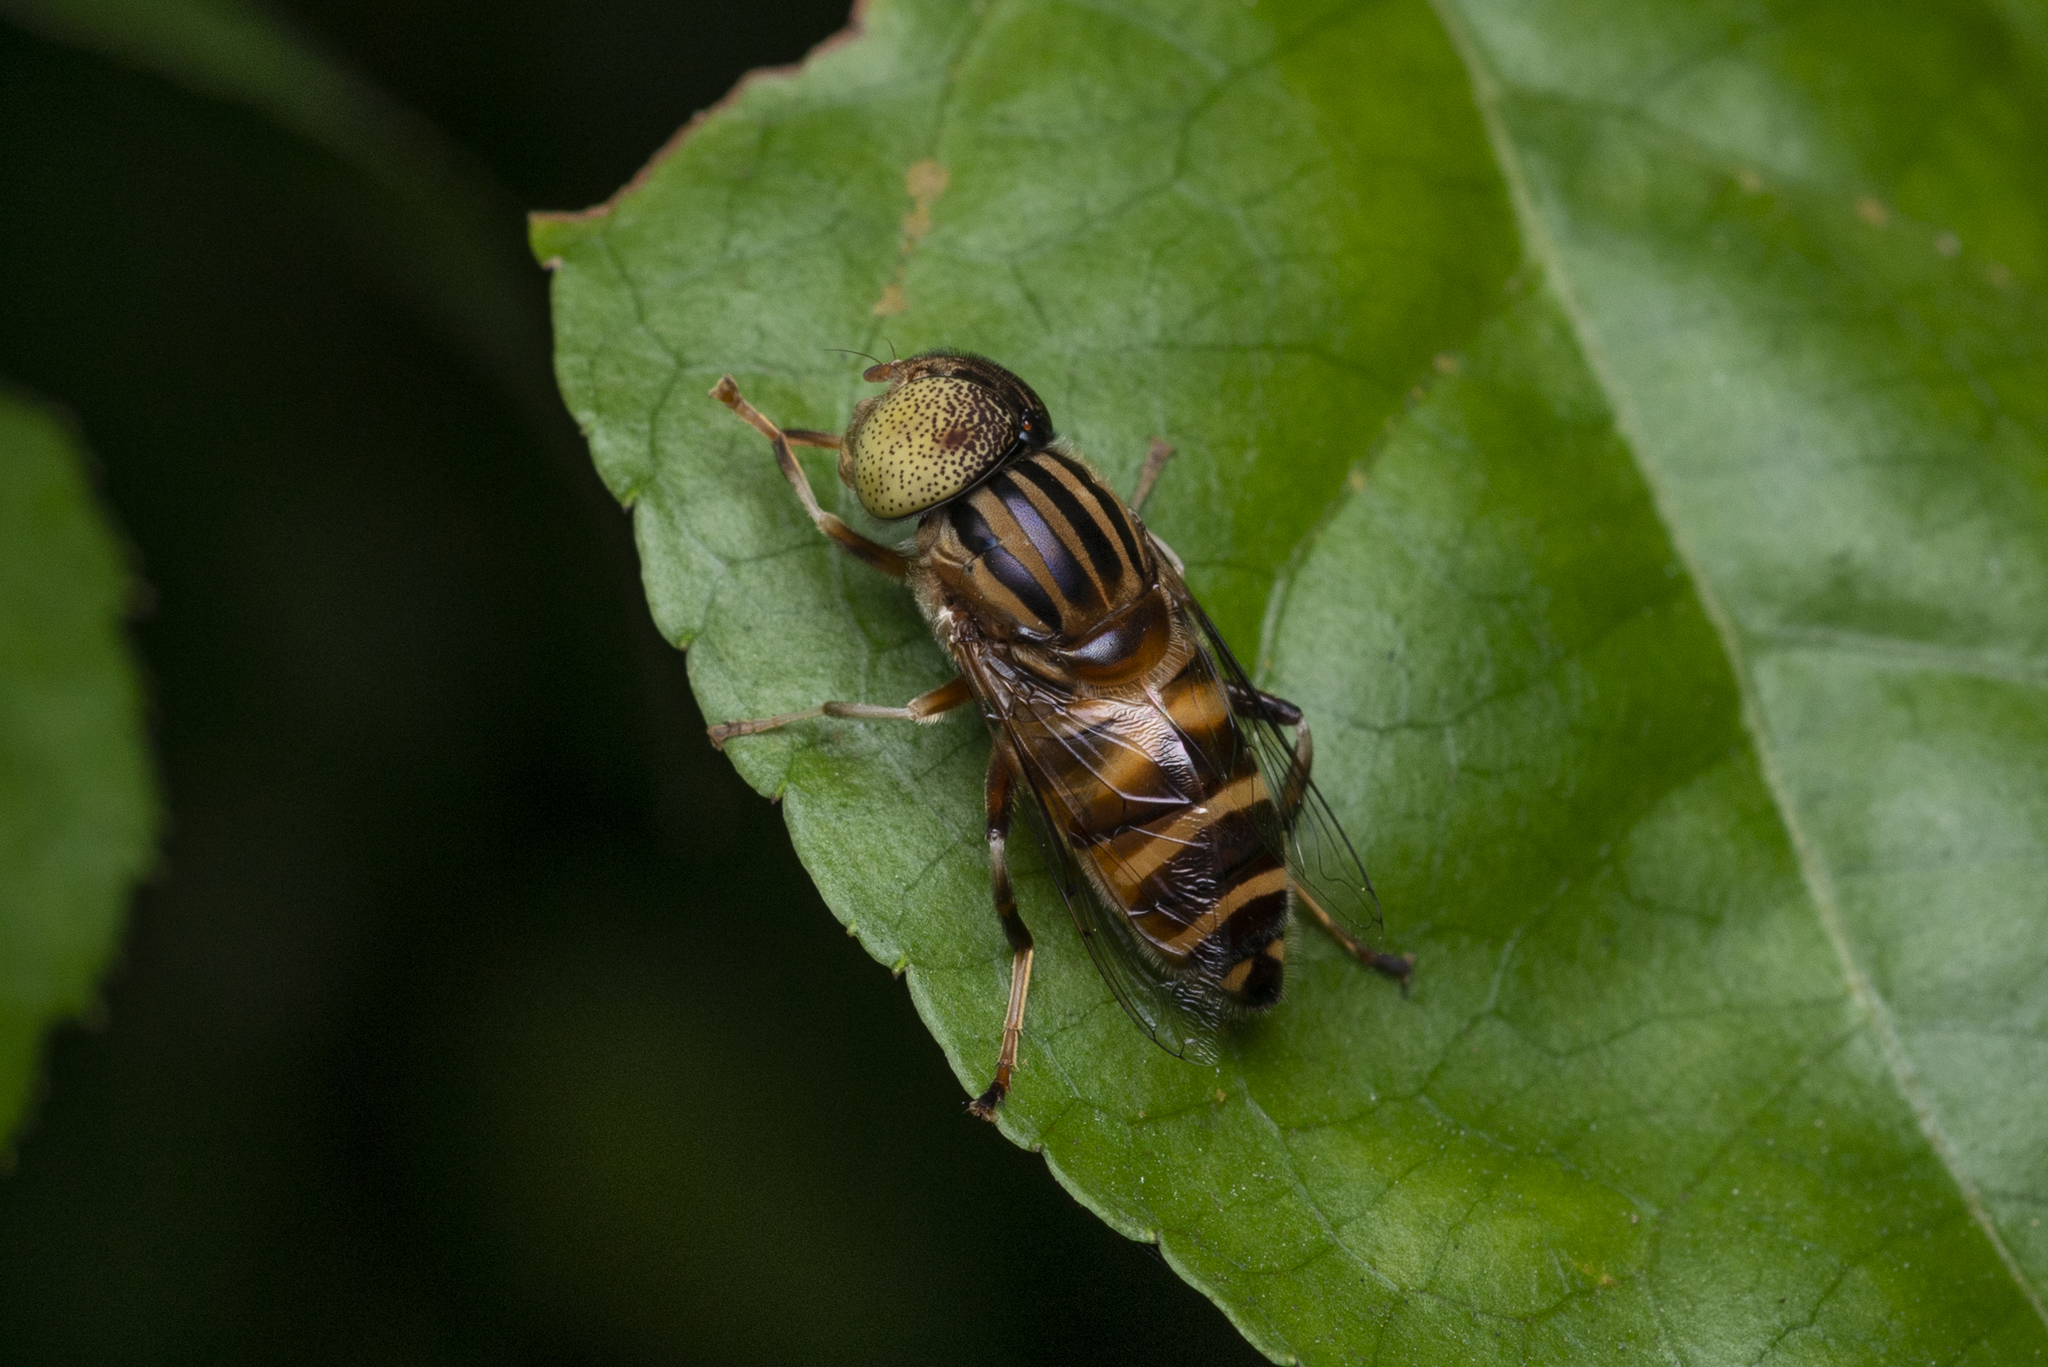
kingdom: Animalia
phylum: Arthropoda
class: Insecta
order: Diptera
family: Syrphidae
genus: Eristalinus
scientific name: Eristalinus arvorum
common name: Syrphid fly
